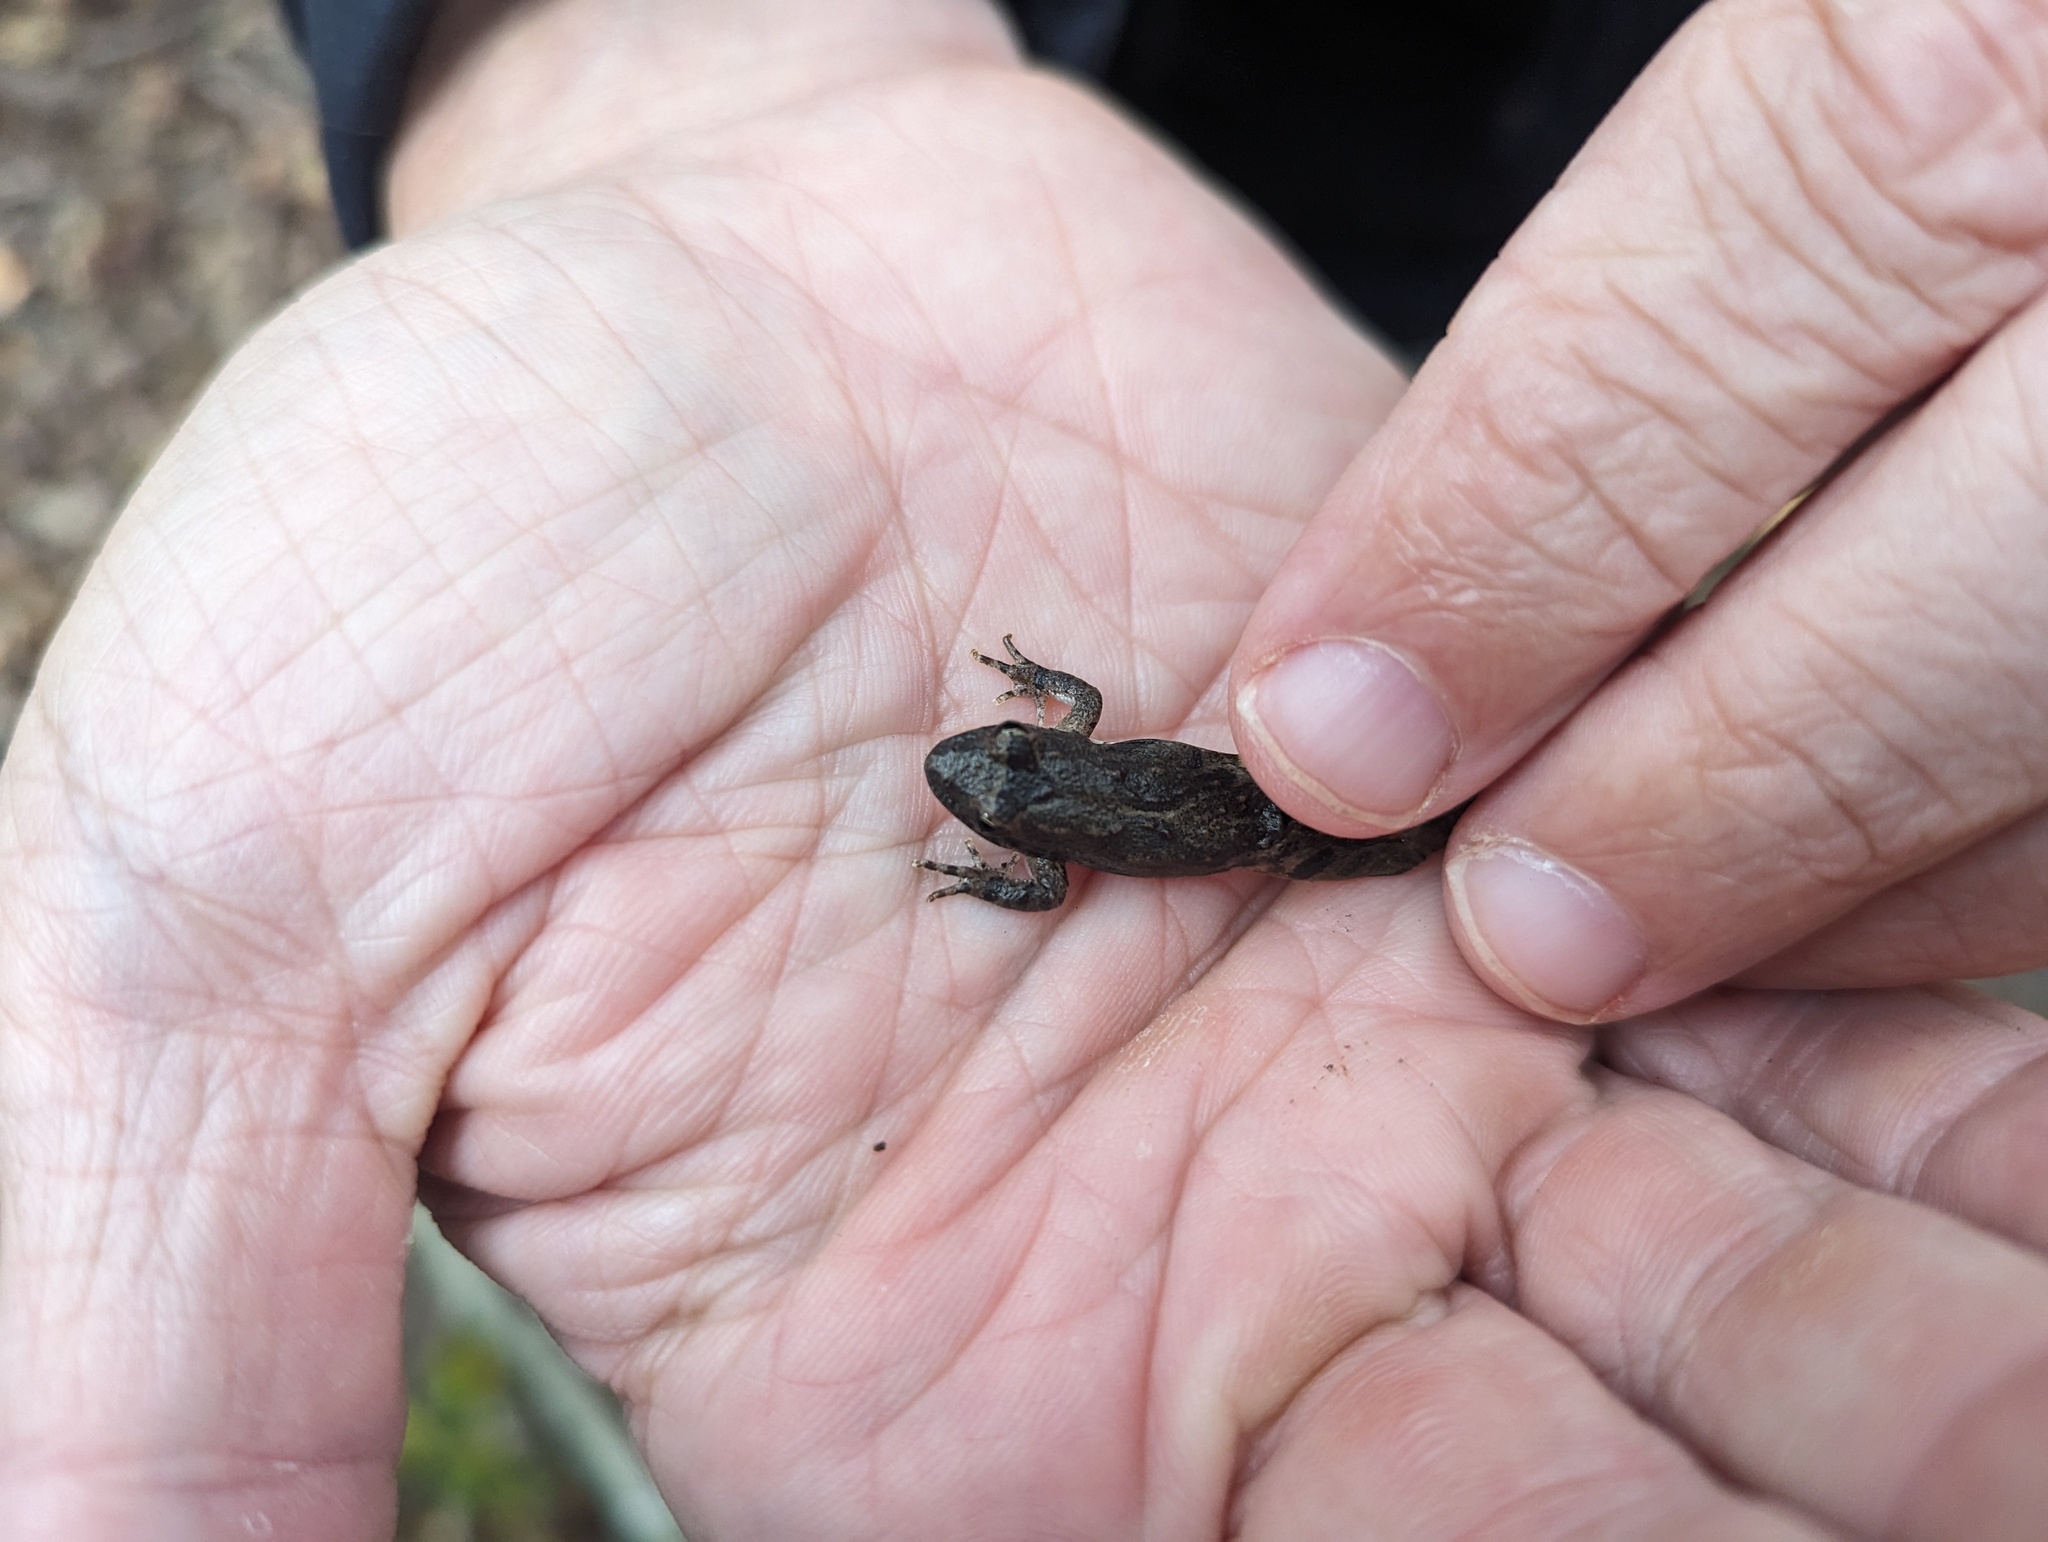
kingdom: Animalia
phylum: Chordata
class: Amphibia
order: Anura
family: Hylidae
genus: Acris
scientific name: Acris blanchardi
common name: Blanchard's cricket frog
